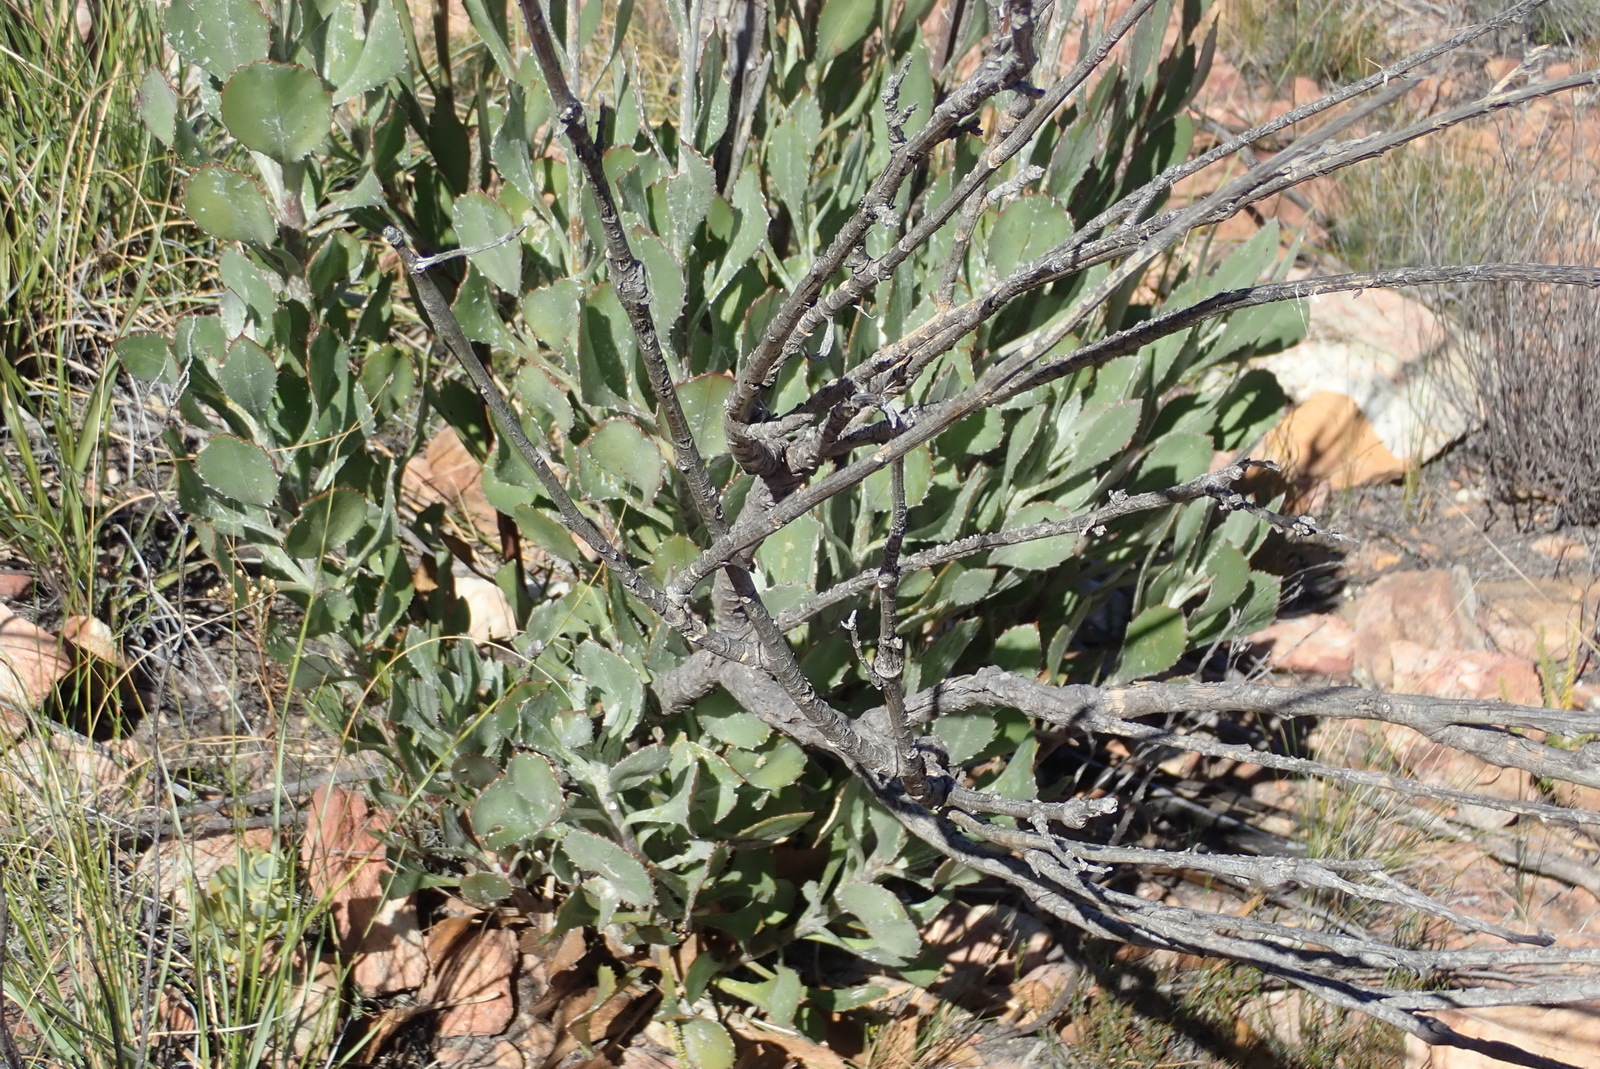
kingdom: Plantae
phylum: Tracheophyta
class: Magnoliopsida
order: Asterales
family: Asteraceae
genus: Osteospermum
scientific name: Osteospermum junceum
